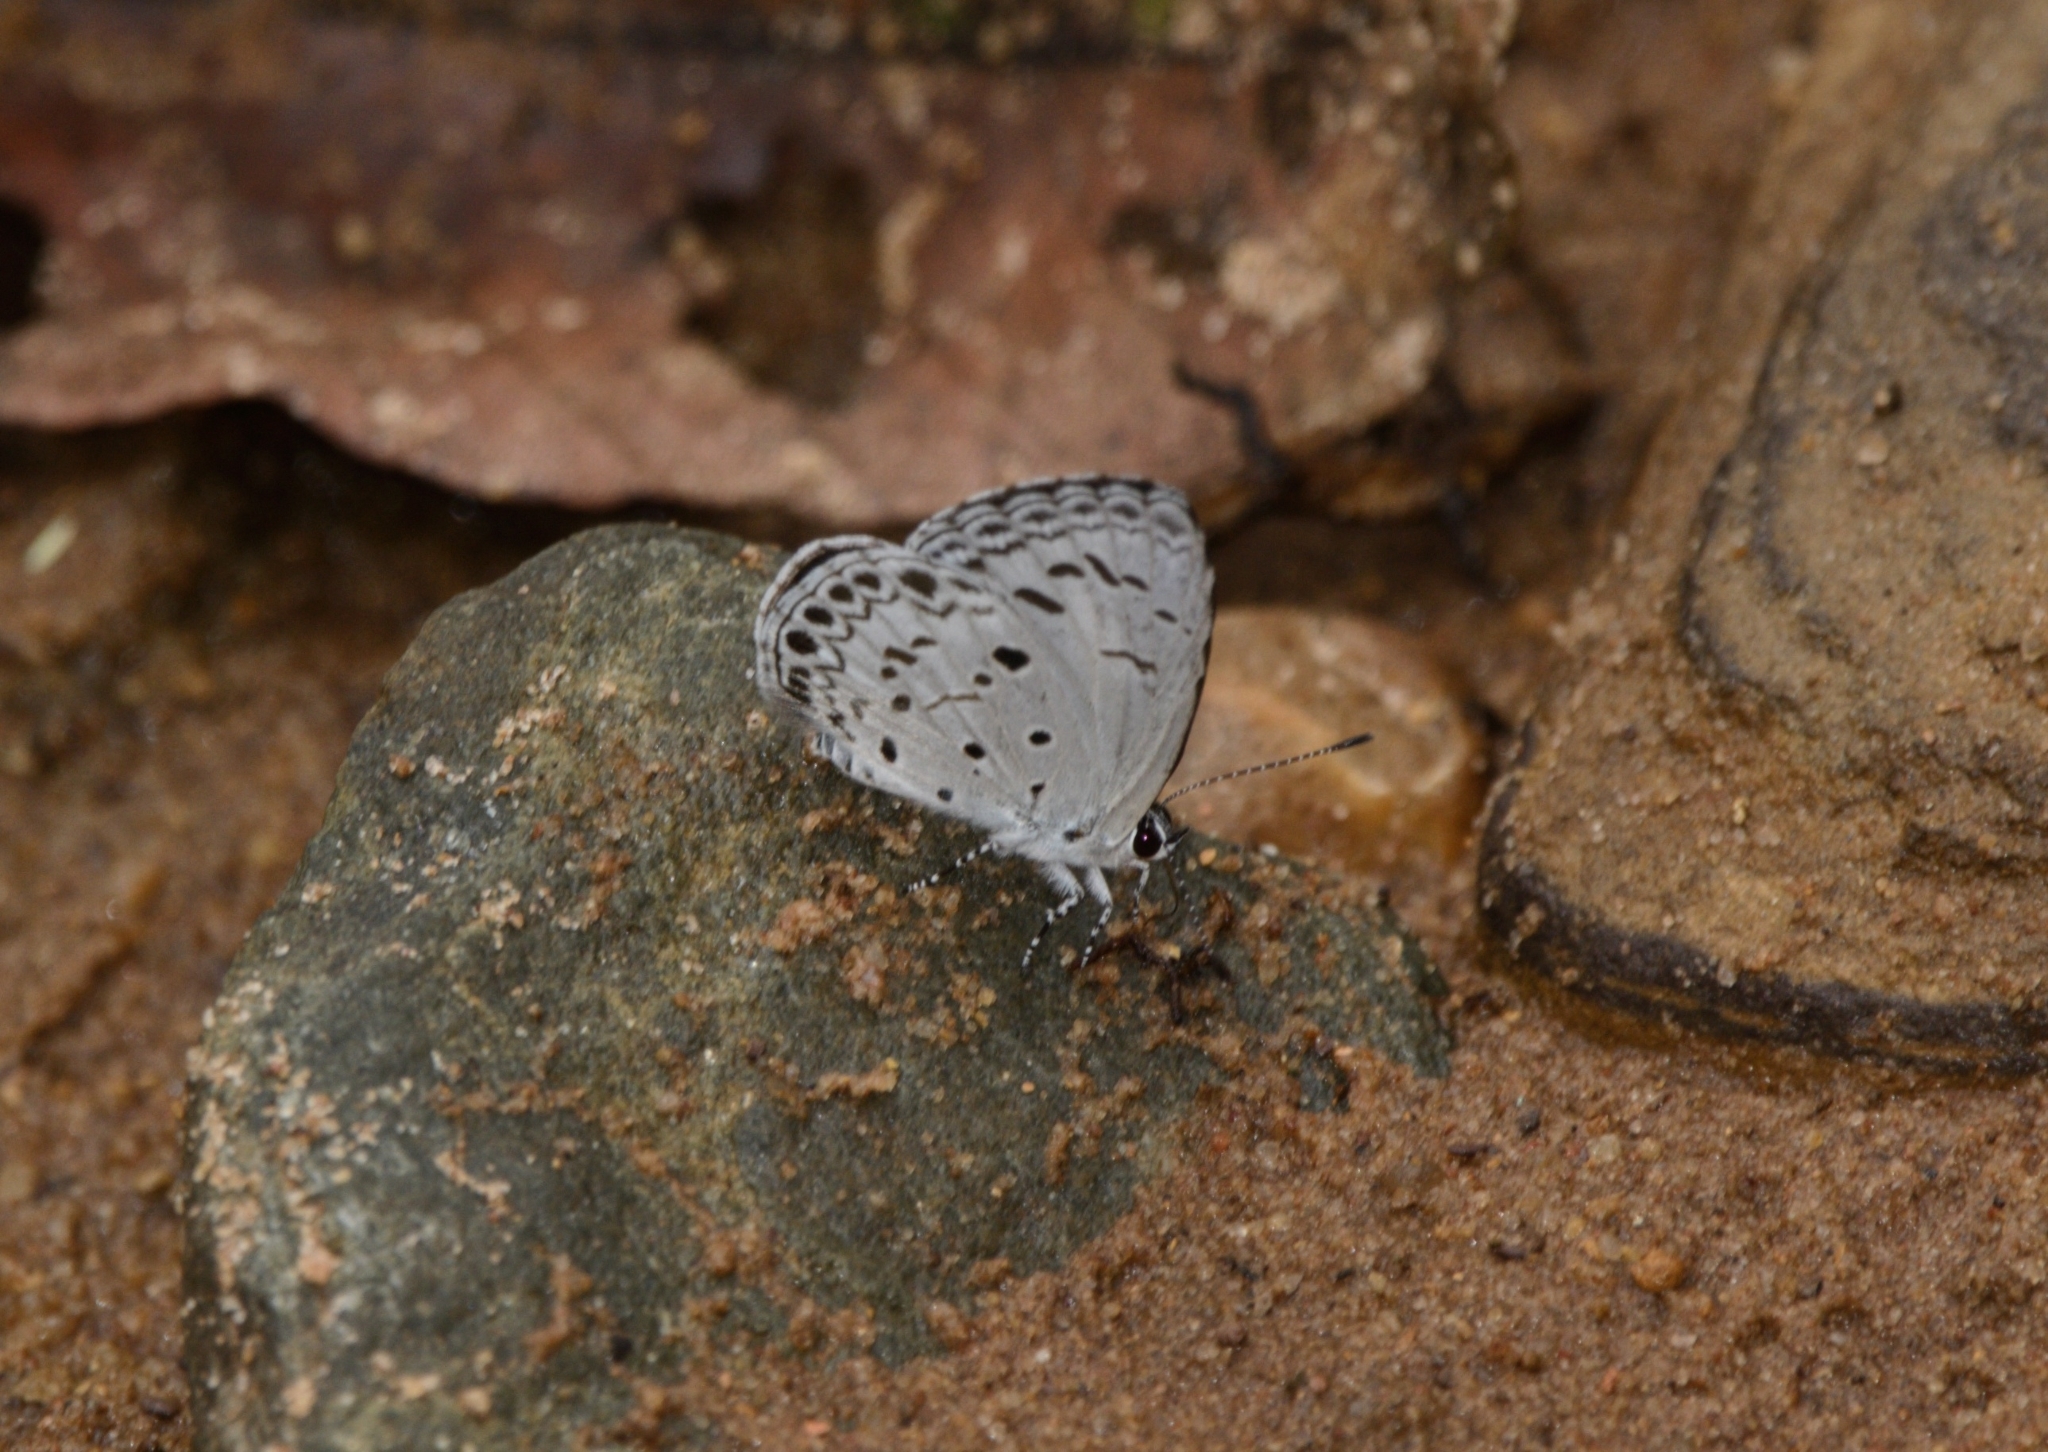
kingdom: Animalia
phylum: Arthropoda
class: Insecta
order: Lepidoptera
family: Lycaenidae
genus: Acytolepis
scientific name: Acytolepis puspa
